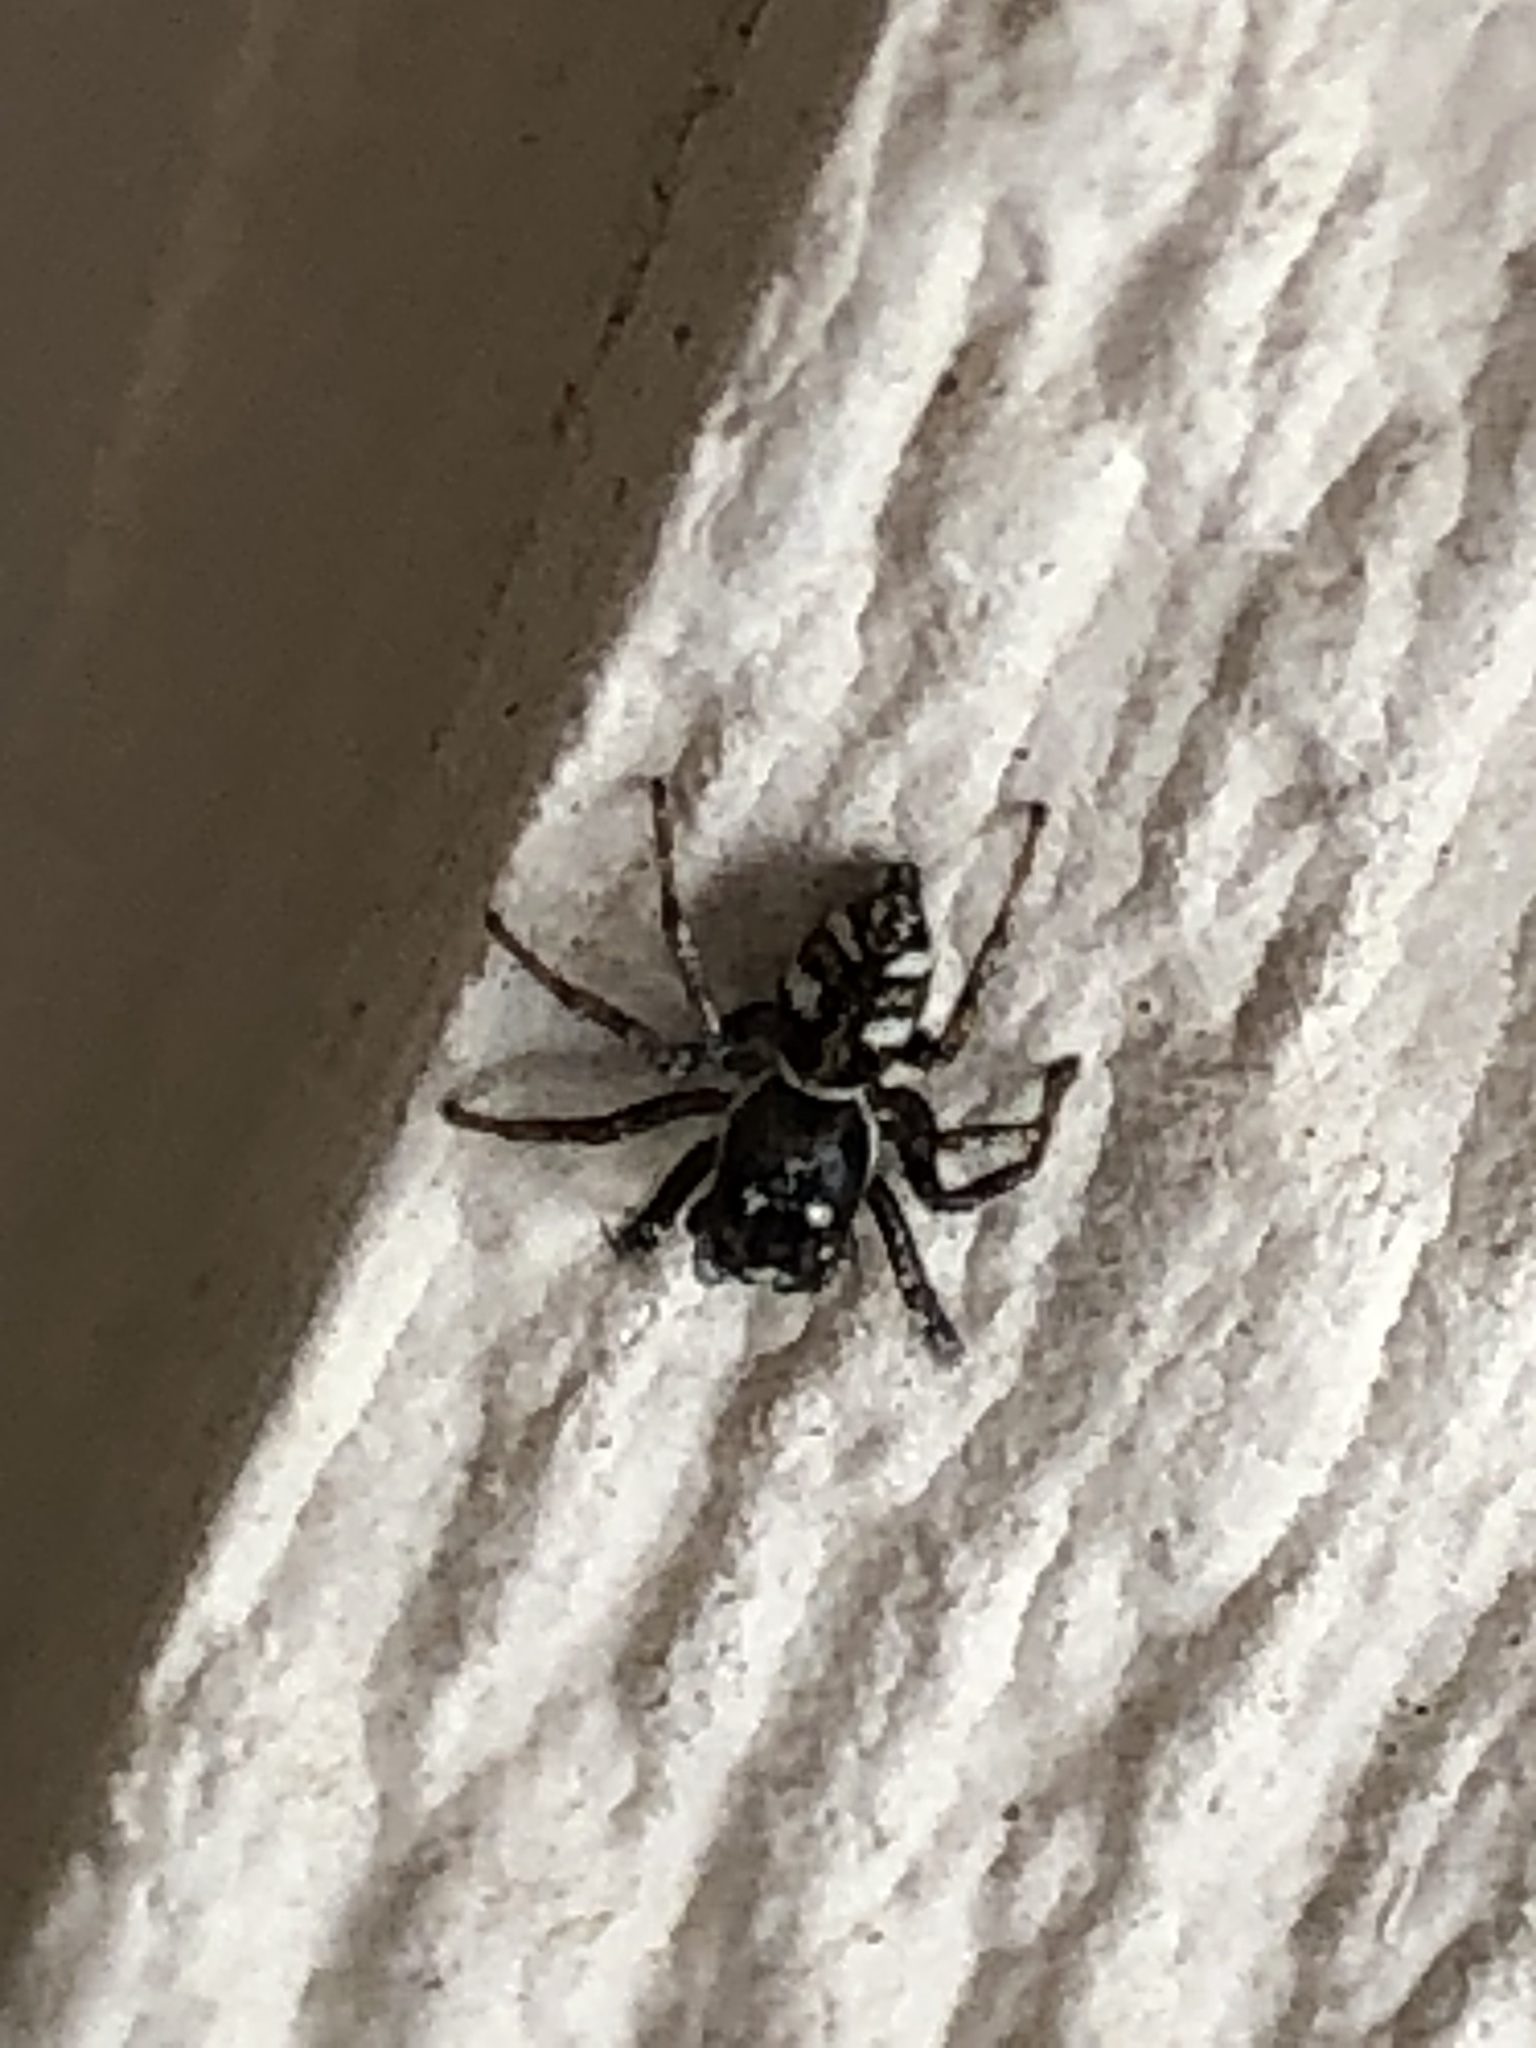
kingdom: Animalia
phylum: Arthropoda
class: Arachnida
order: Araneae
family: Salticidae
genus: Salticus
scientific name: Salticus scenicus
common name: Zebra jumper
